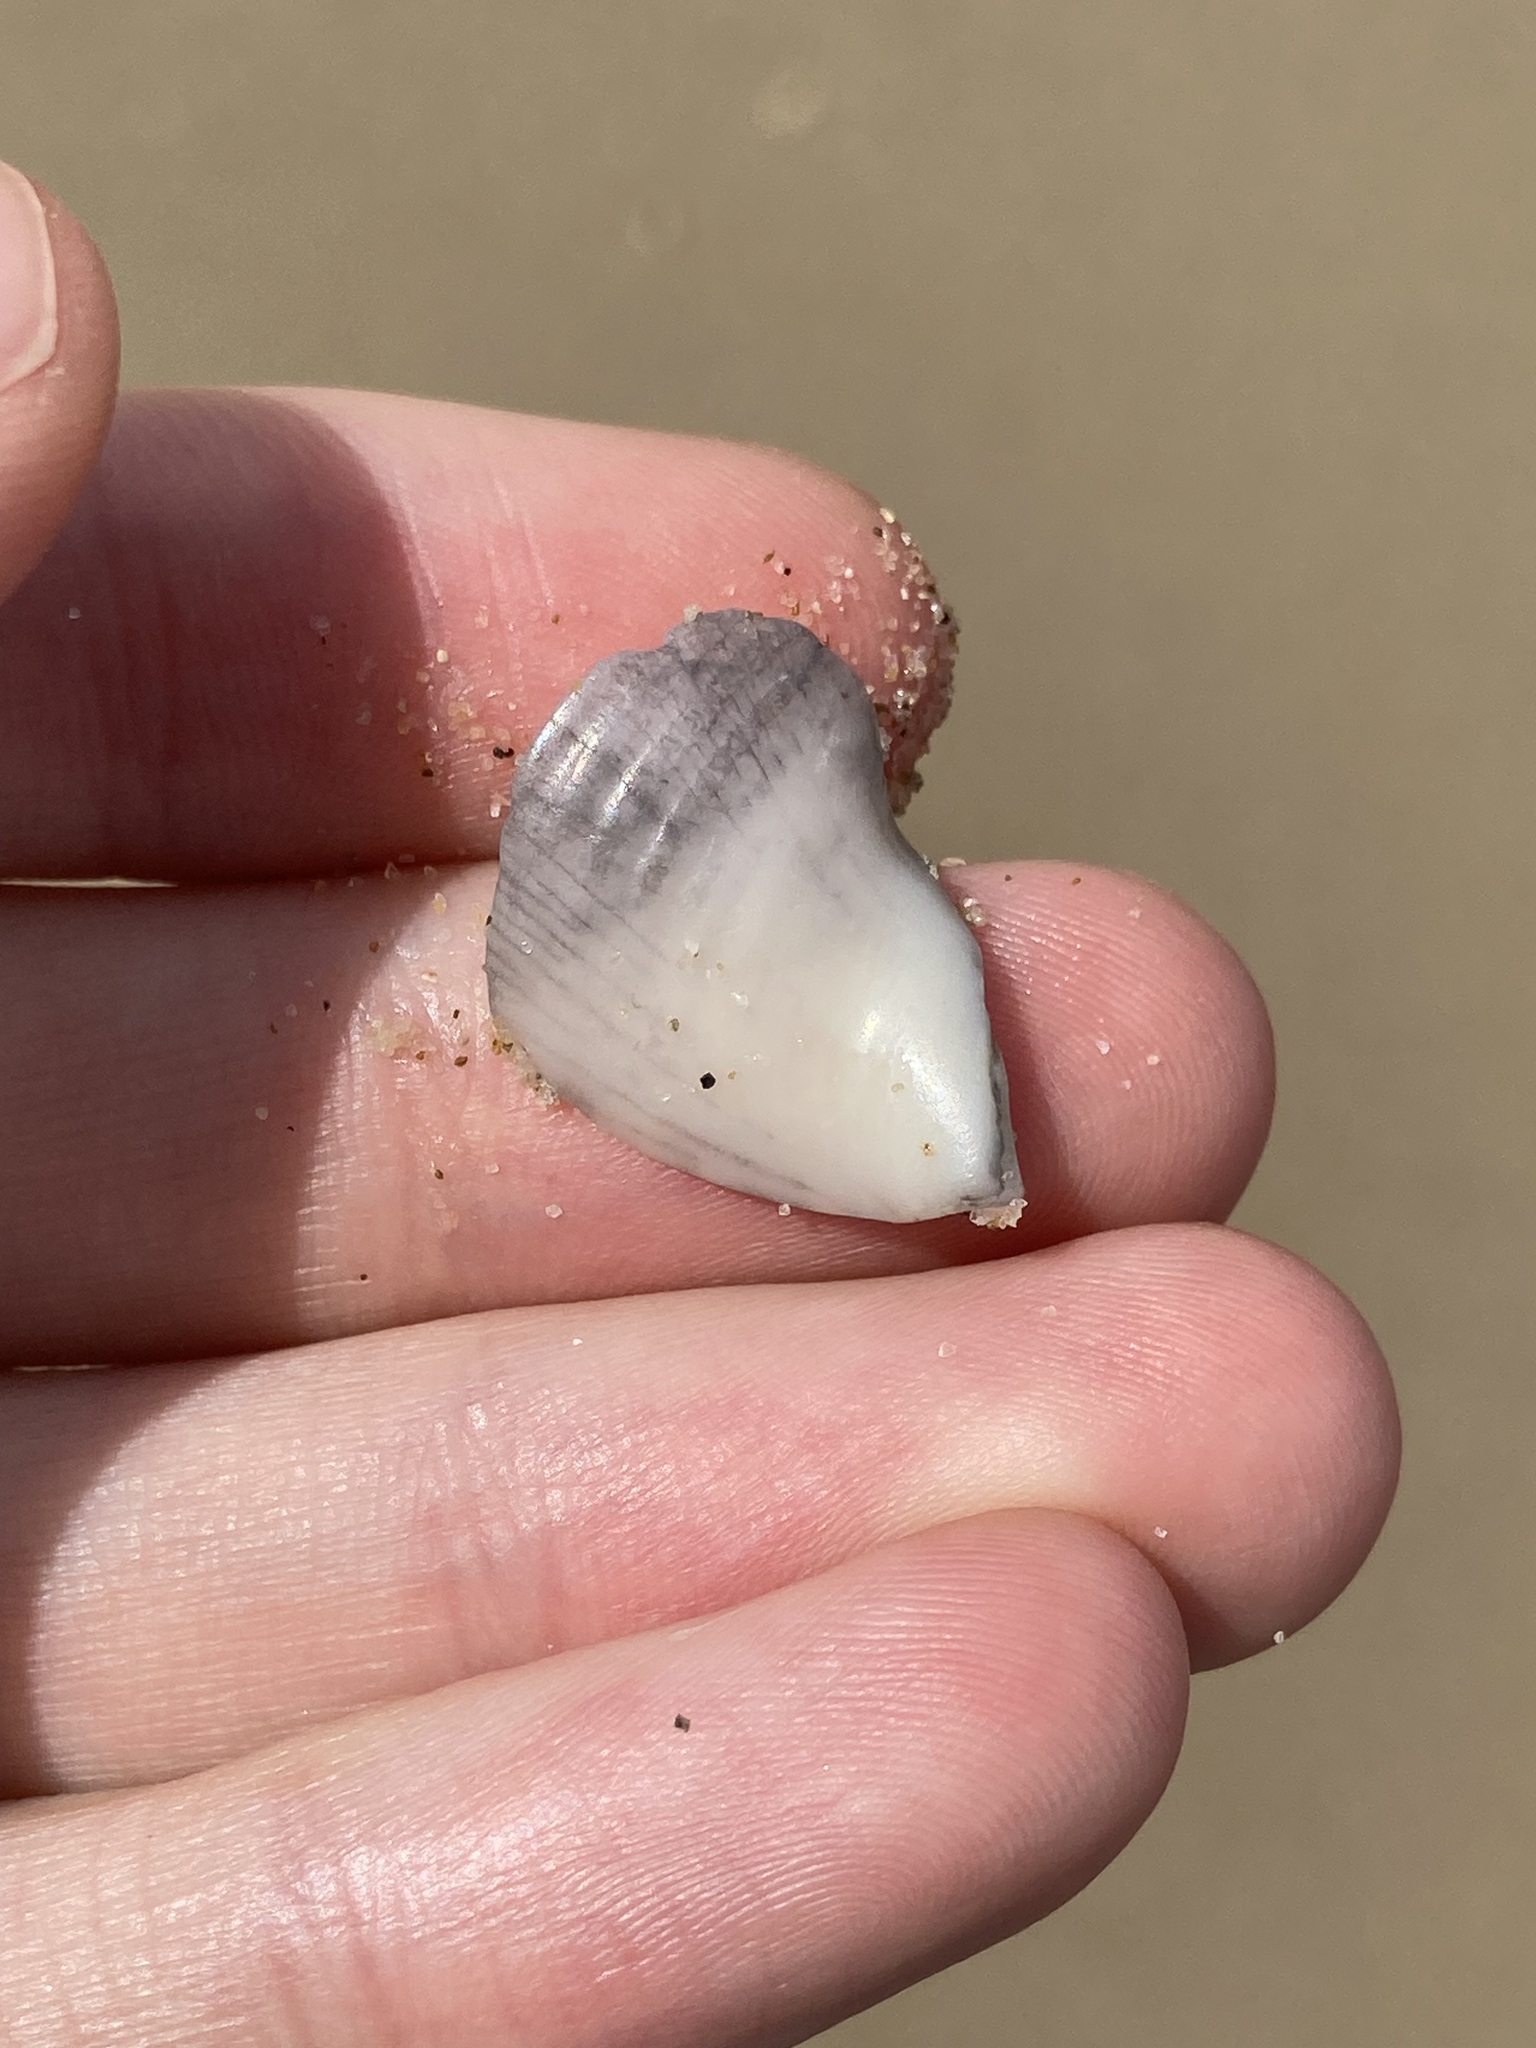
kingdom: Animalia
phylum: Mollusca
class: Gastropoda
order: Littorinimorpha
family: Tonnidae
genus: Tonna
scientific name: Tonna tankervillii
